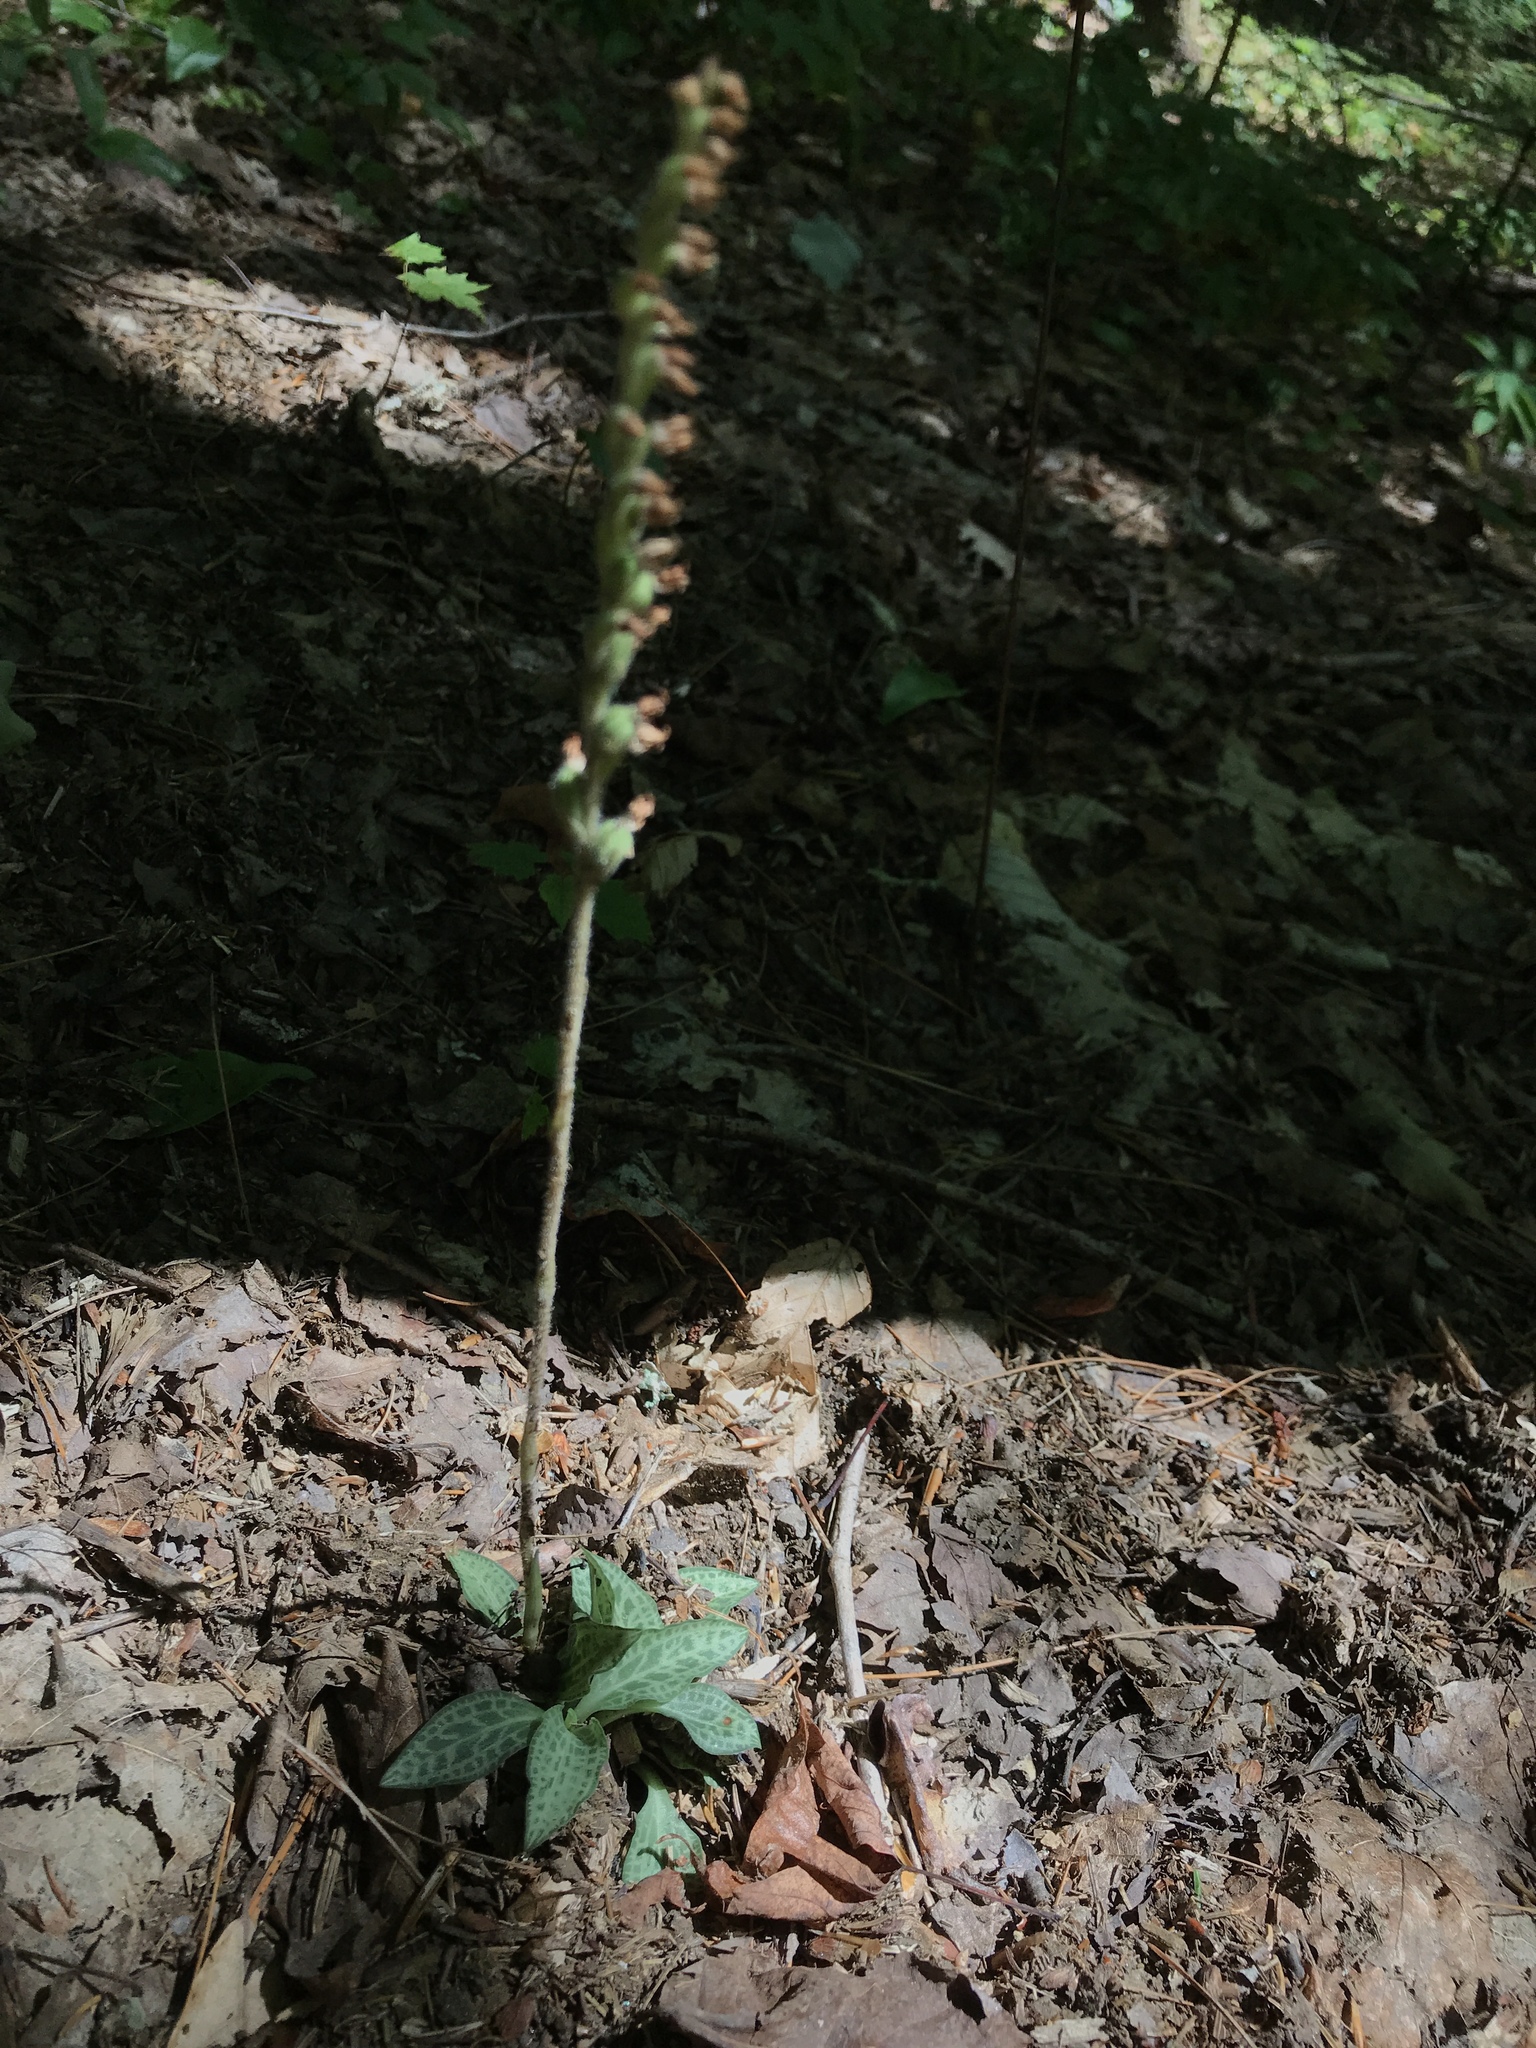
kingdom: Plantae
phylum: Tracheophyta
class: Liliopsida
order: Asparagales
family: Orchidaceae
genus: Goodyera
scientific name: Goodyera tesselata
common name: Checkered rattlesnake-plantain
